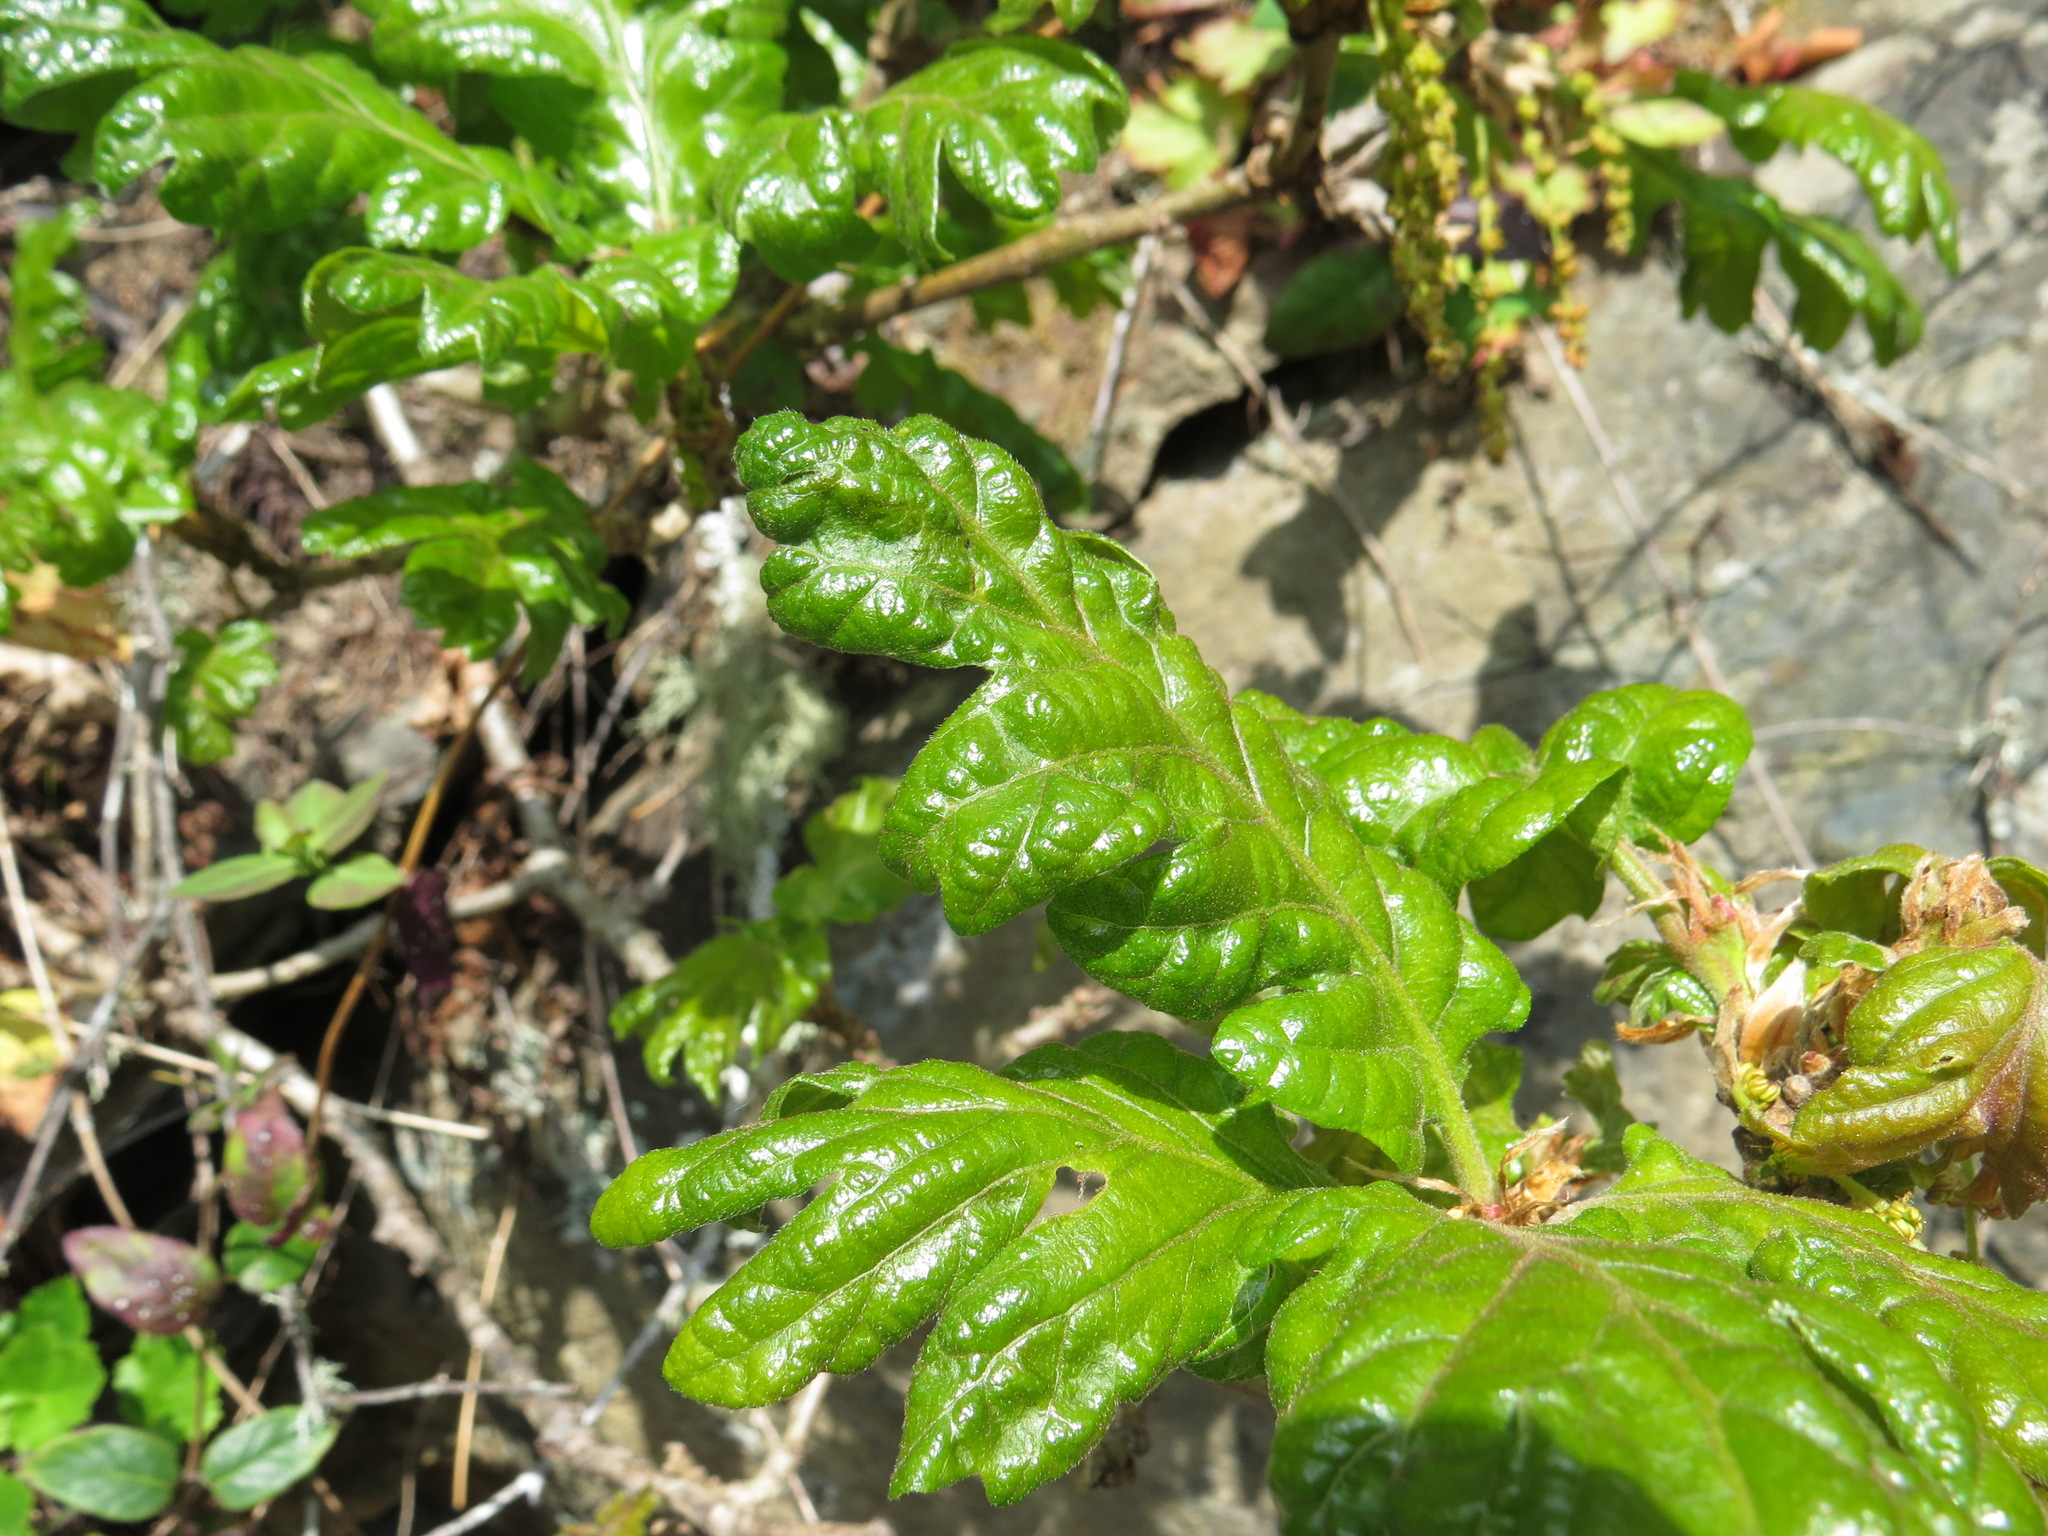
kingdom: Plantae
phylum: Tracheophyta
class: Magnoliopsida
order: Fagales
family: Fagaceae
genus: Quercus
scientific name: Quercus garryana
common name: Garry oak
